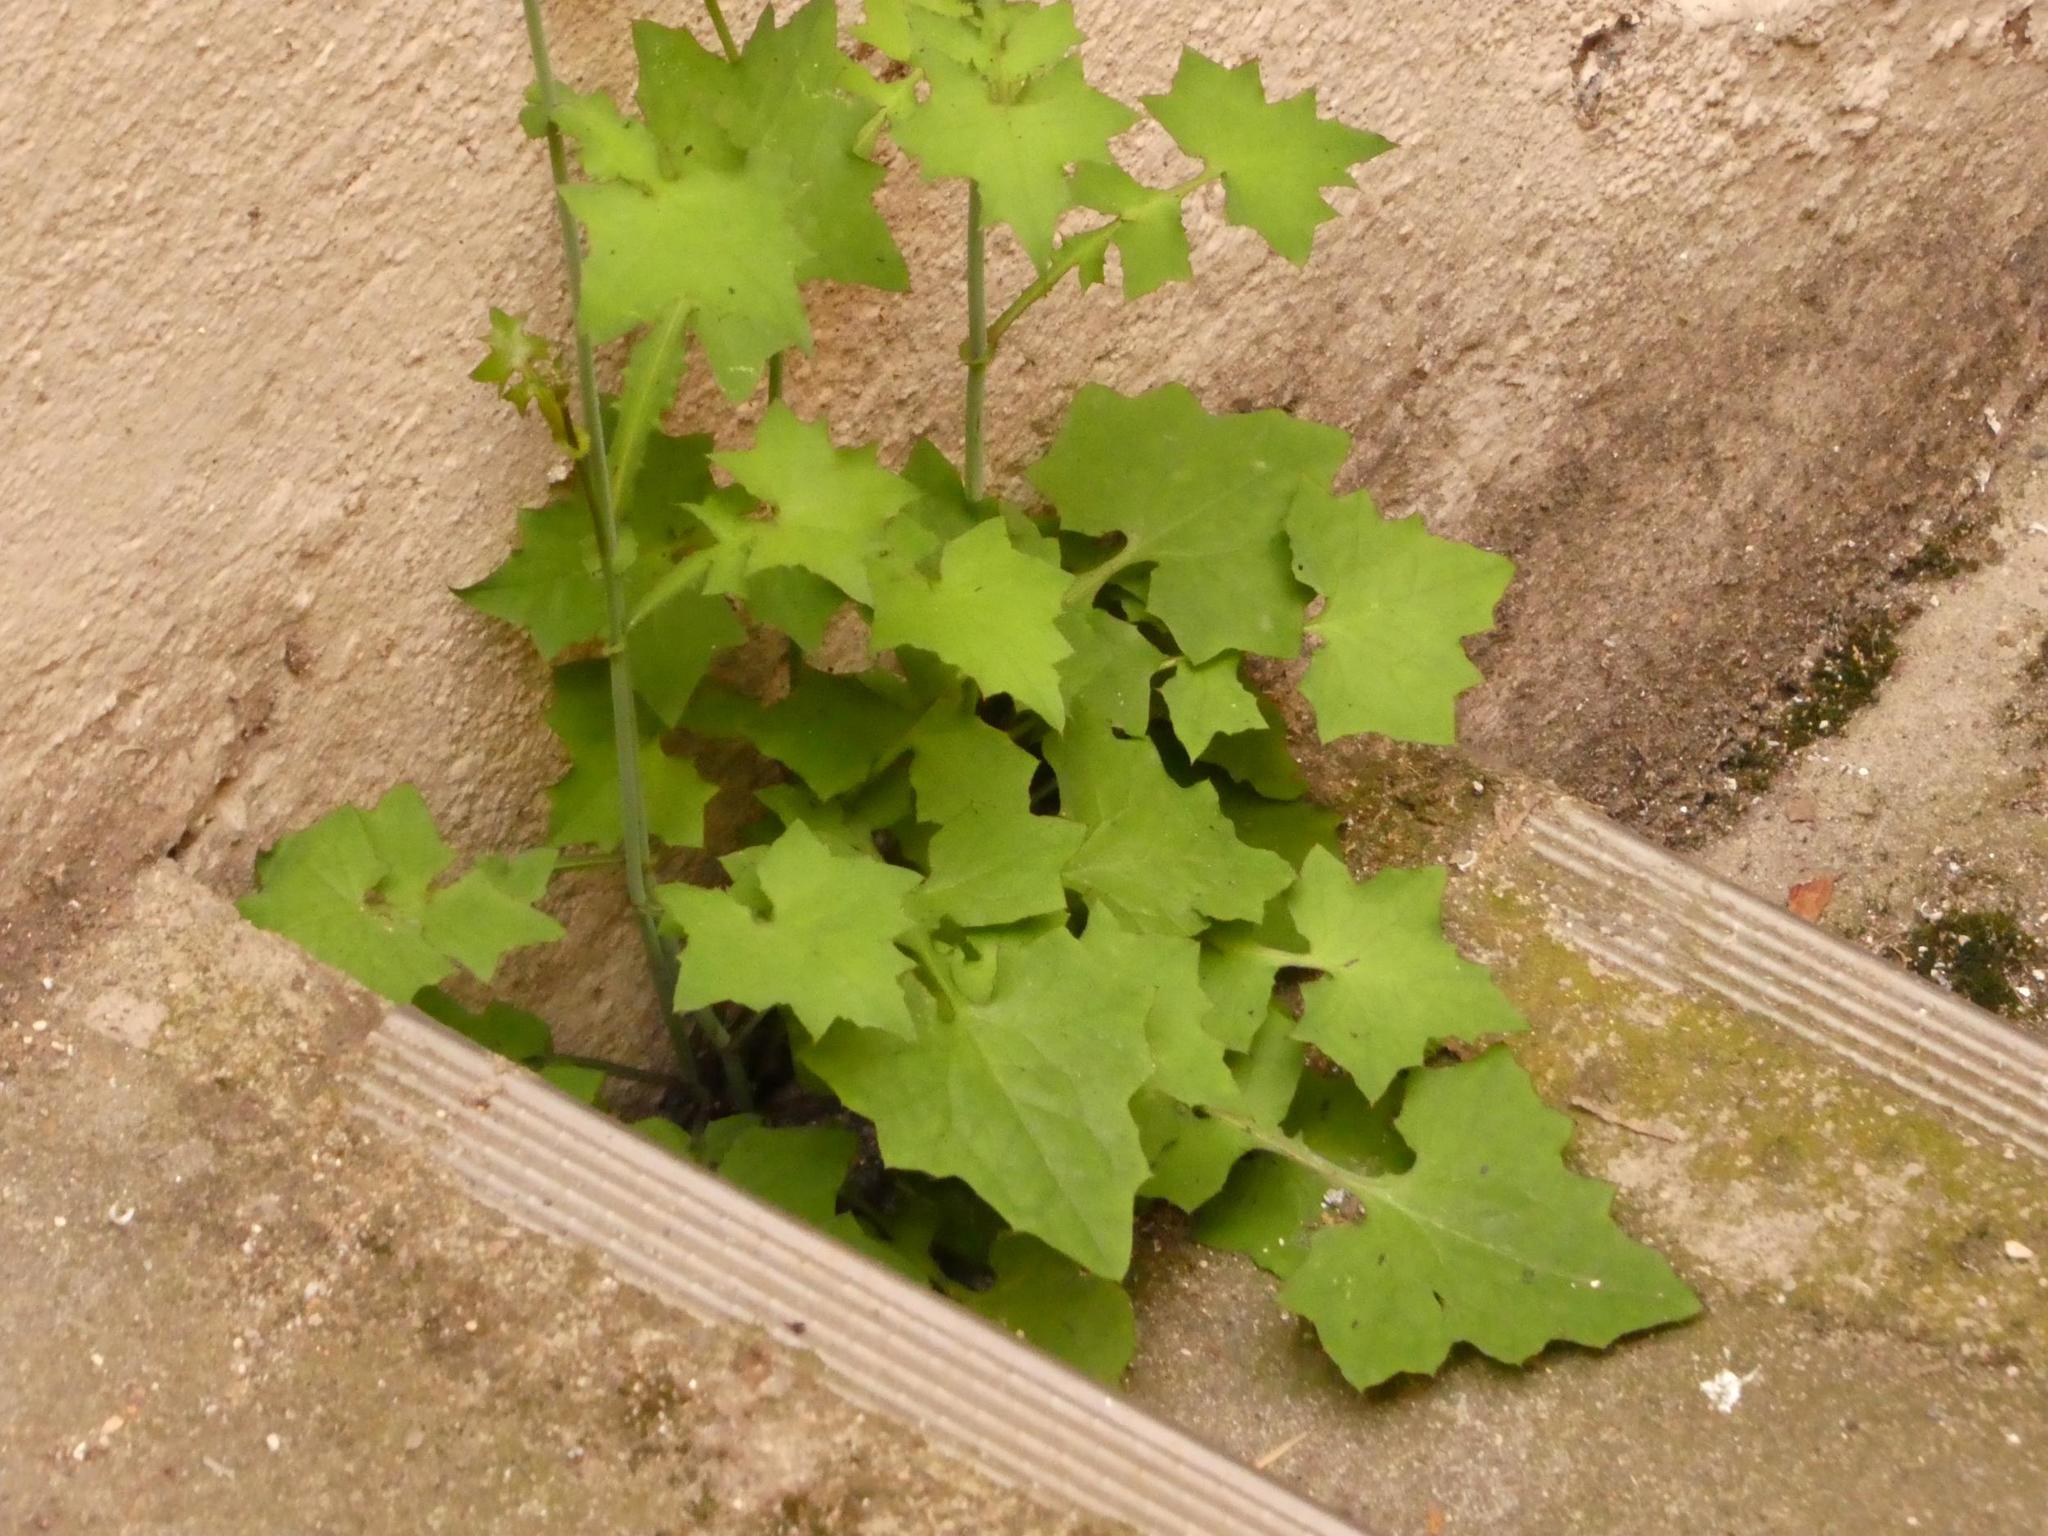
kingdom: Plantae
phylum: Tracheophyta
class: Magnoliopsida
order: Asterales
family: Asteraceae
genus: Mycelis
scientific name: Mycelis muralis
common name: Wall lettuce
